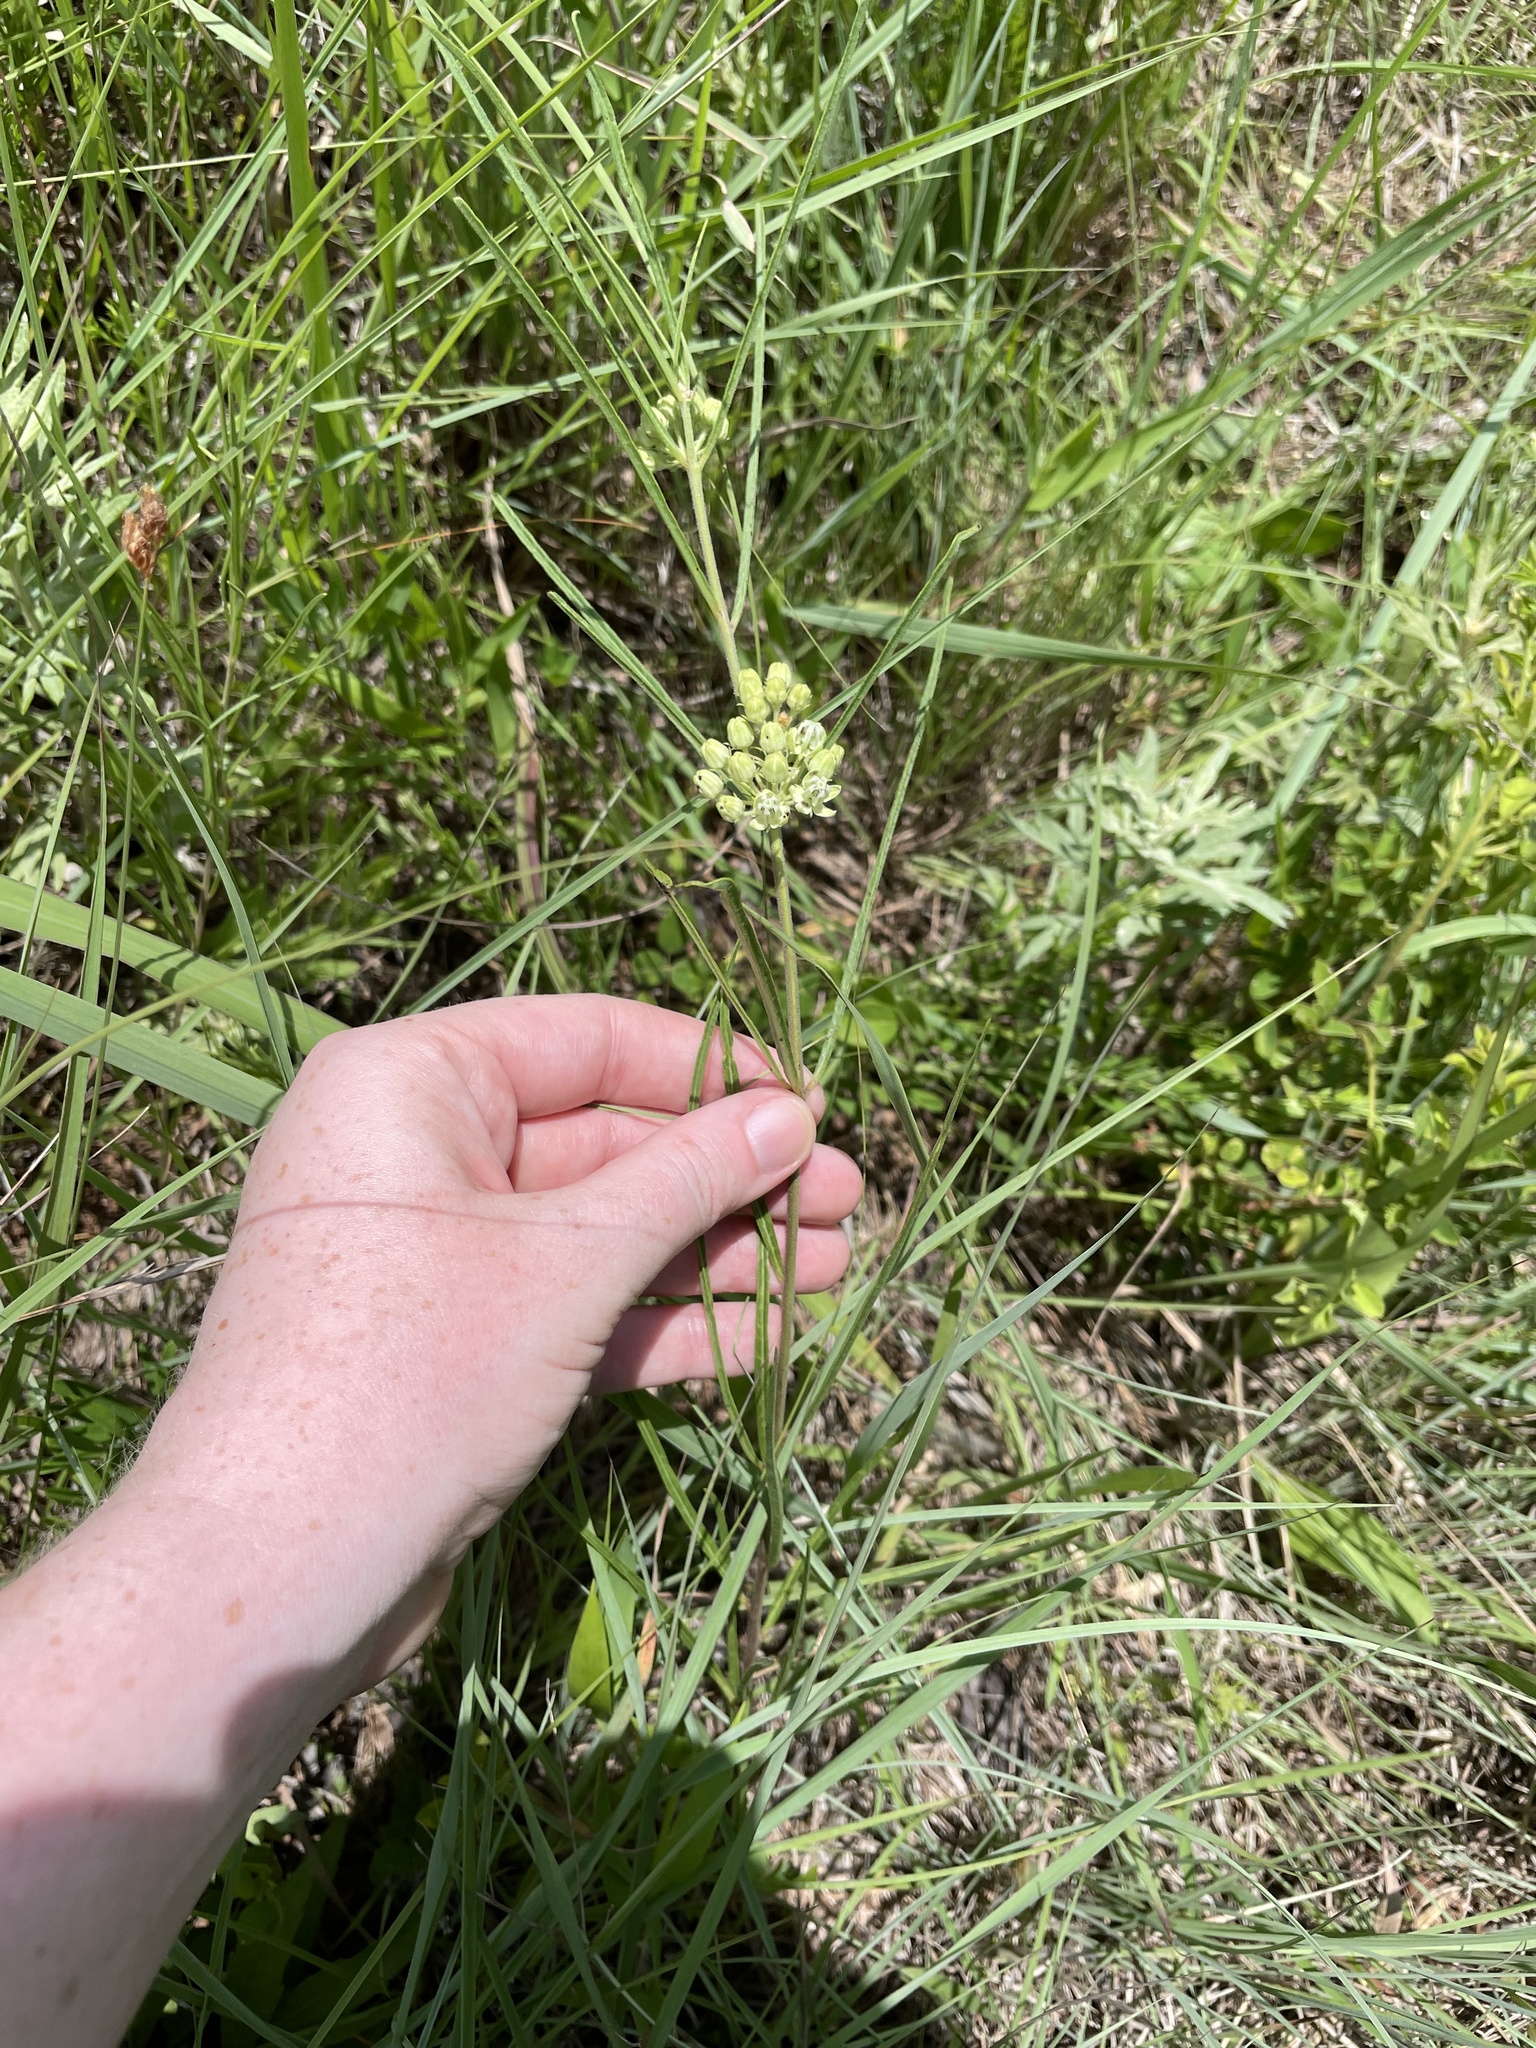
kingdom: Plantae
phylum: Tracheophyta
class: Magnoliopsida
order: Gentianales
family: Apocynaceae
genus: Asclepias
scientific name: Asclepias stenophylla
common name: Narrow-leaf milkweed
